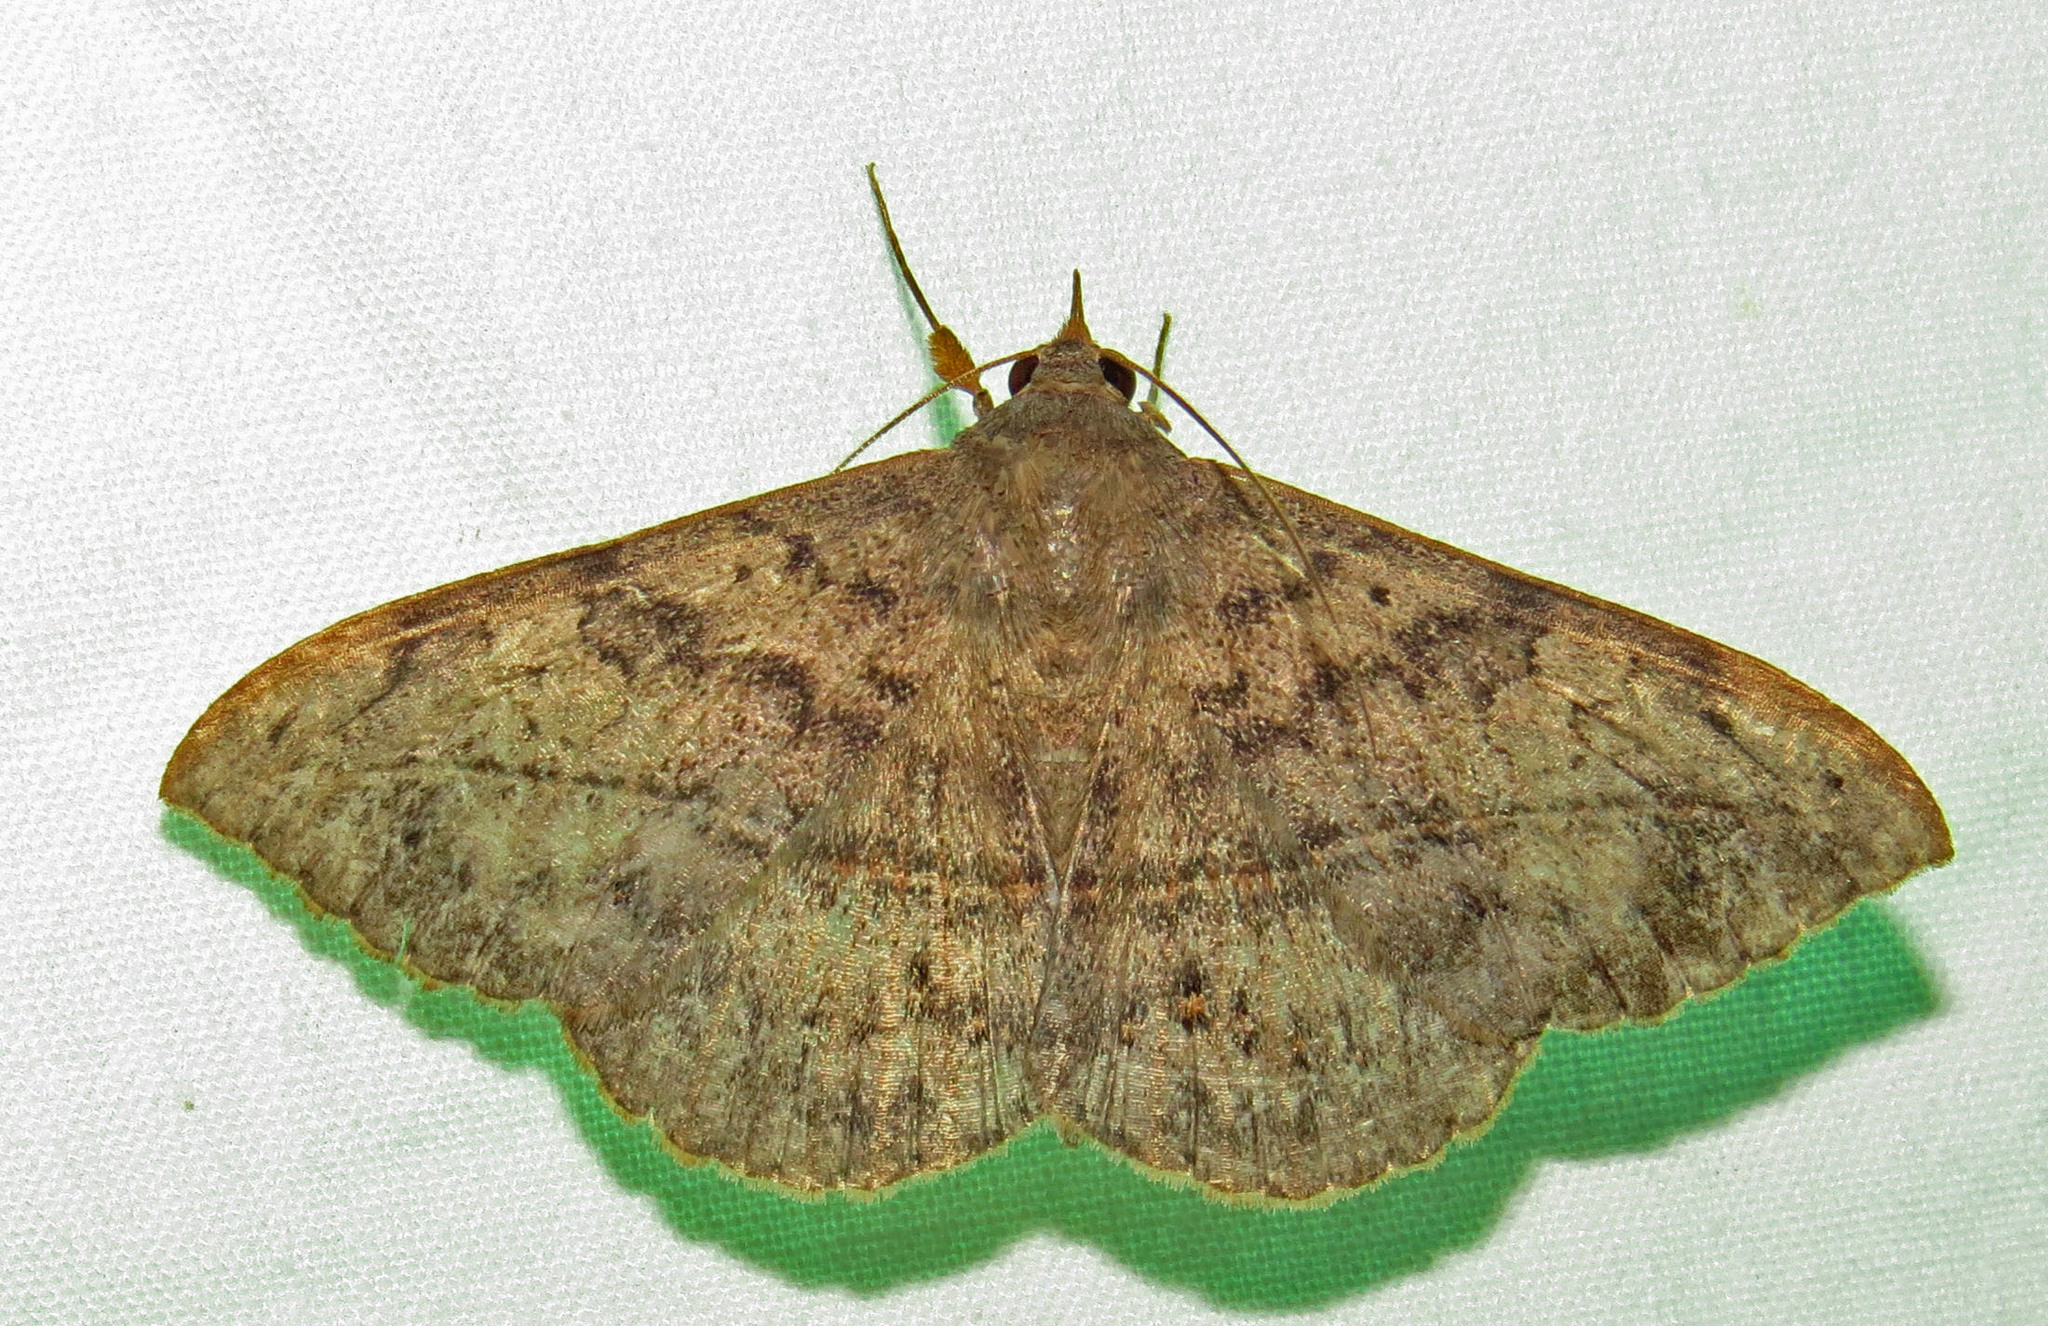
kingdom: Animalia
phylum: Arthropoda
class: Insecta
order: Lepidoptera
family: Erebidae
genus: Anticarsia
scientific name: Anticarsia gemmatalis
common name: Cutworm moth
